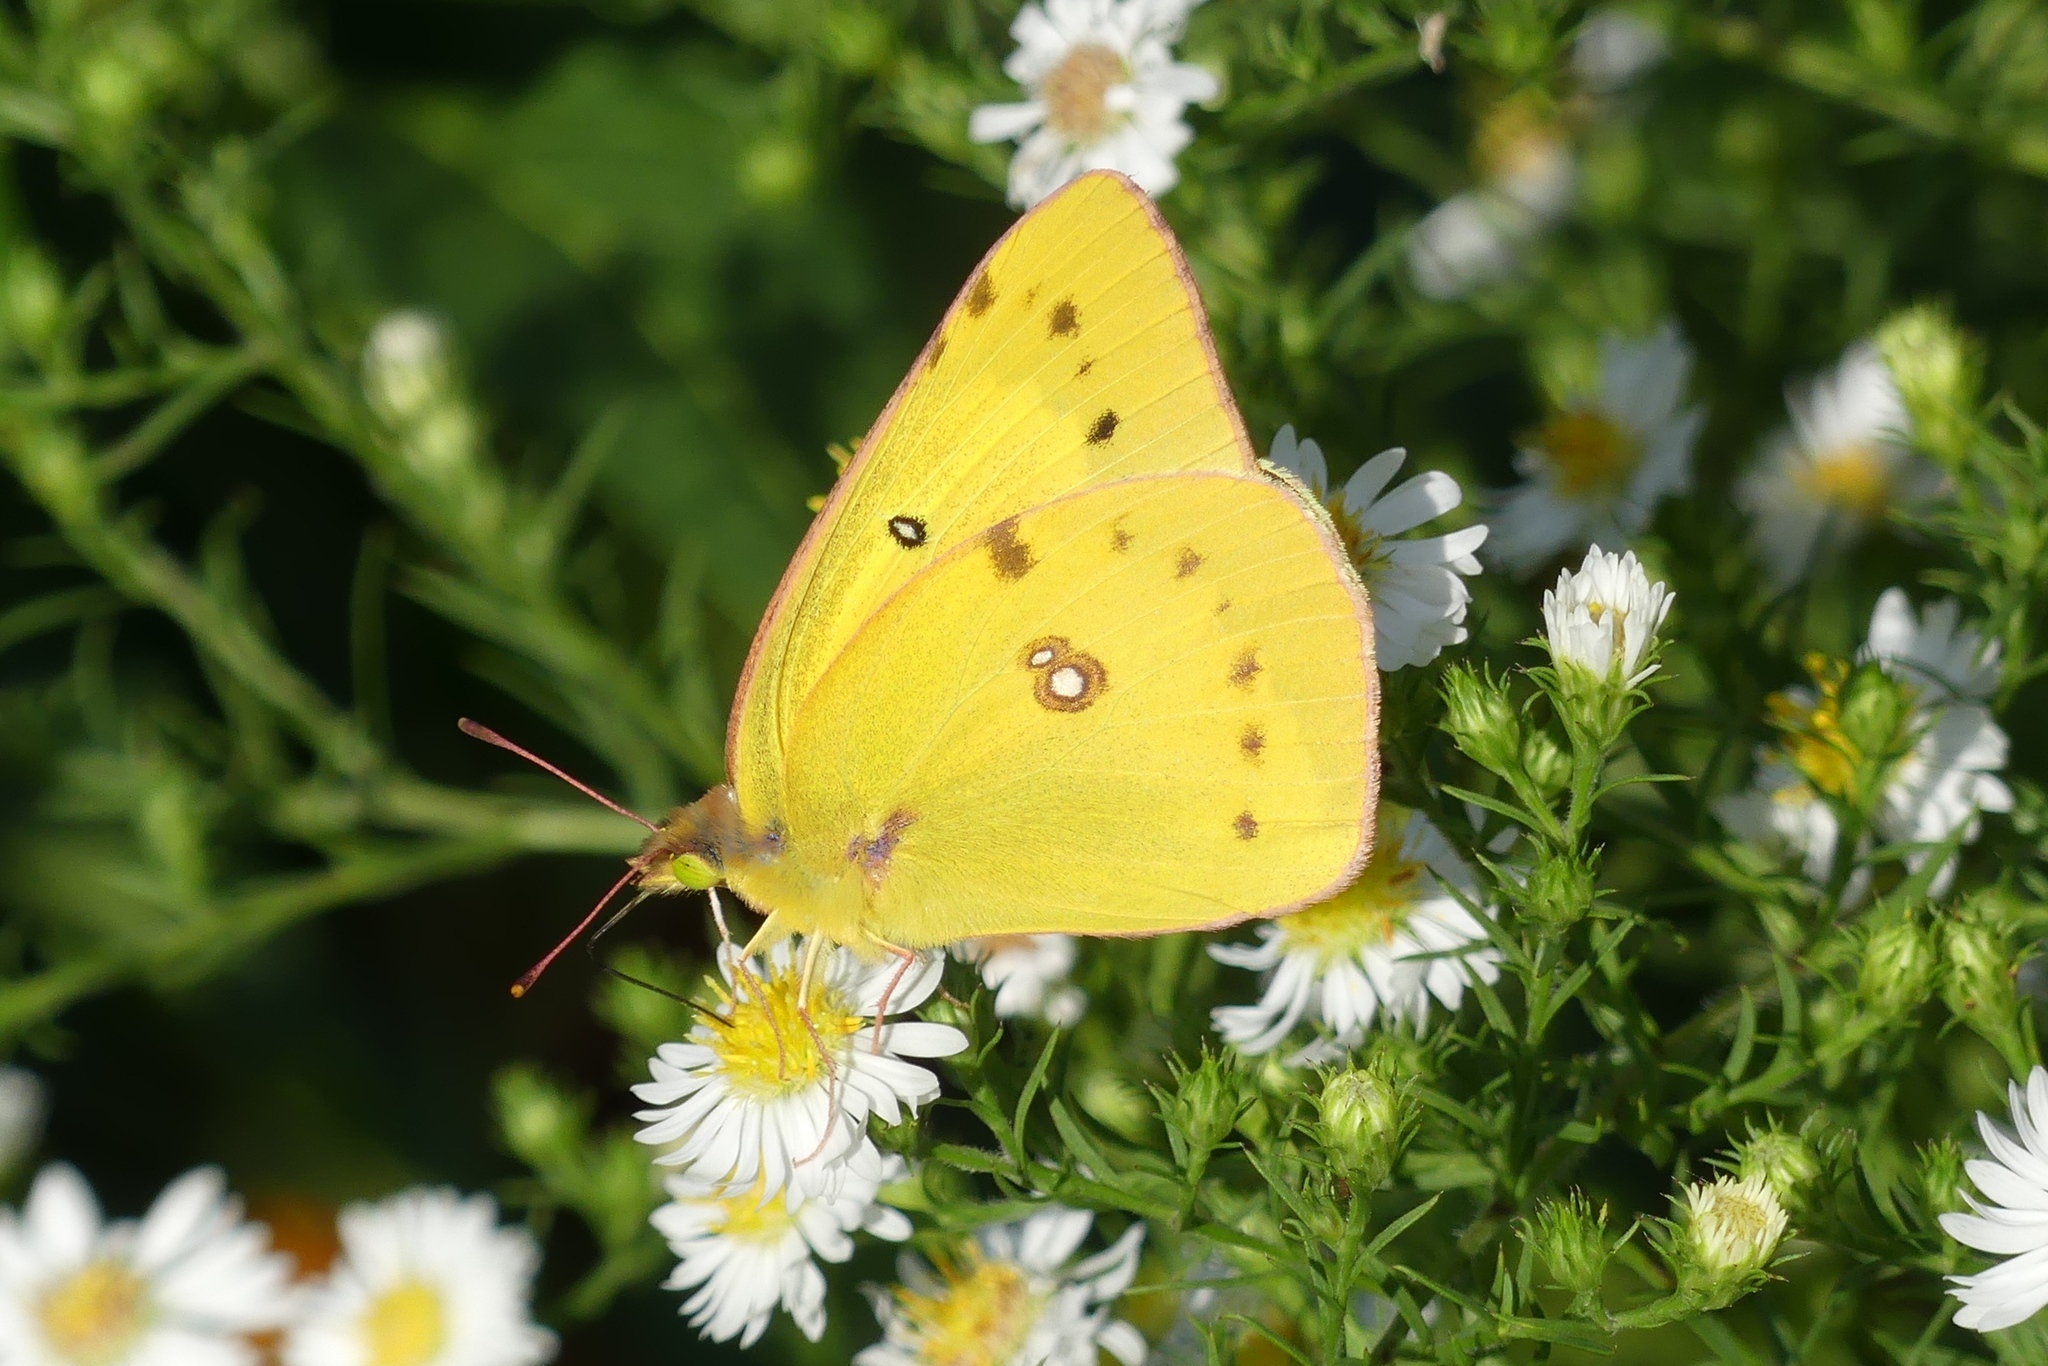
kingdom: Animalia
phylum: Arthropoda
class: Insecta
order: Lepidoptera
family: Pieridae
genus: Colias
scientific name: Colias eurytheme
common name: Alfalfa butterfly
